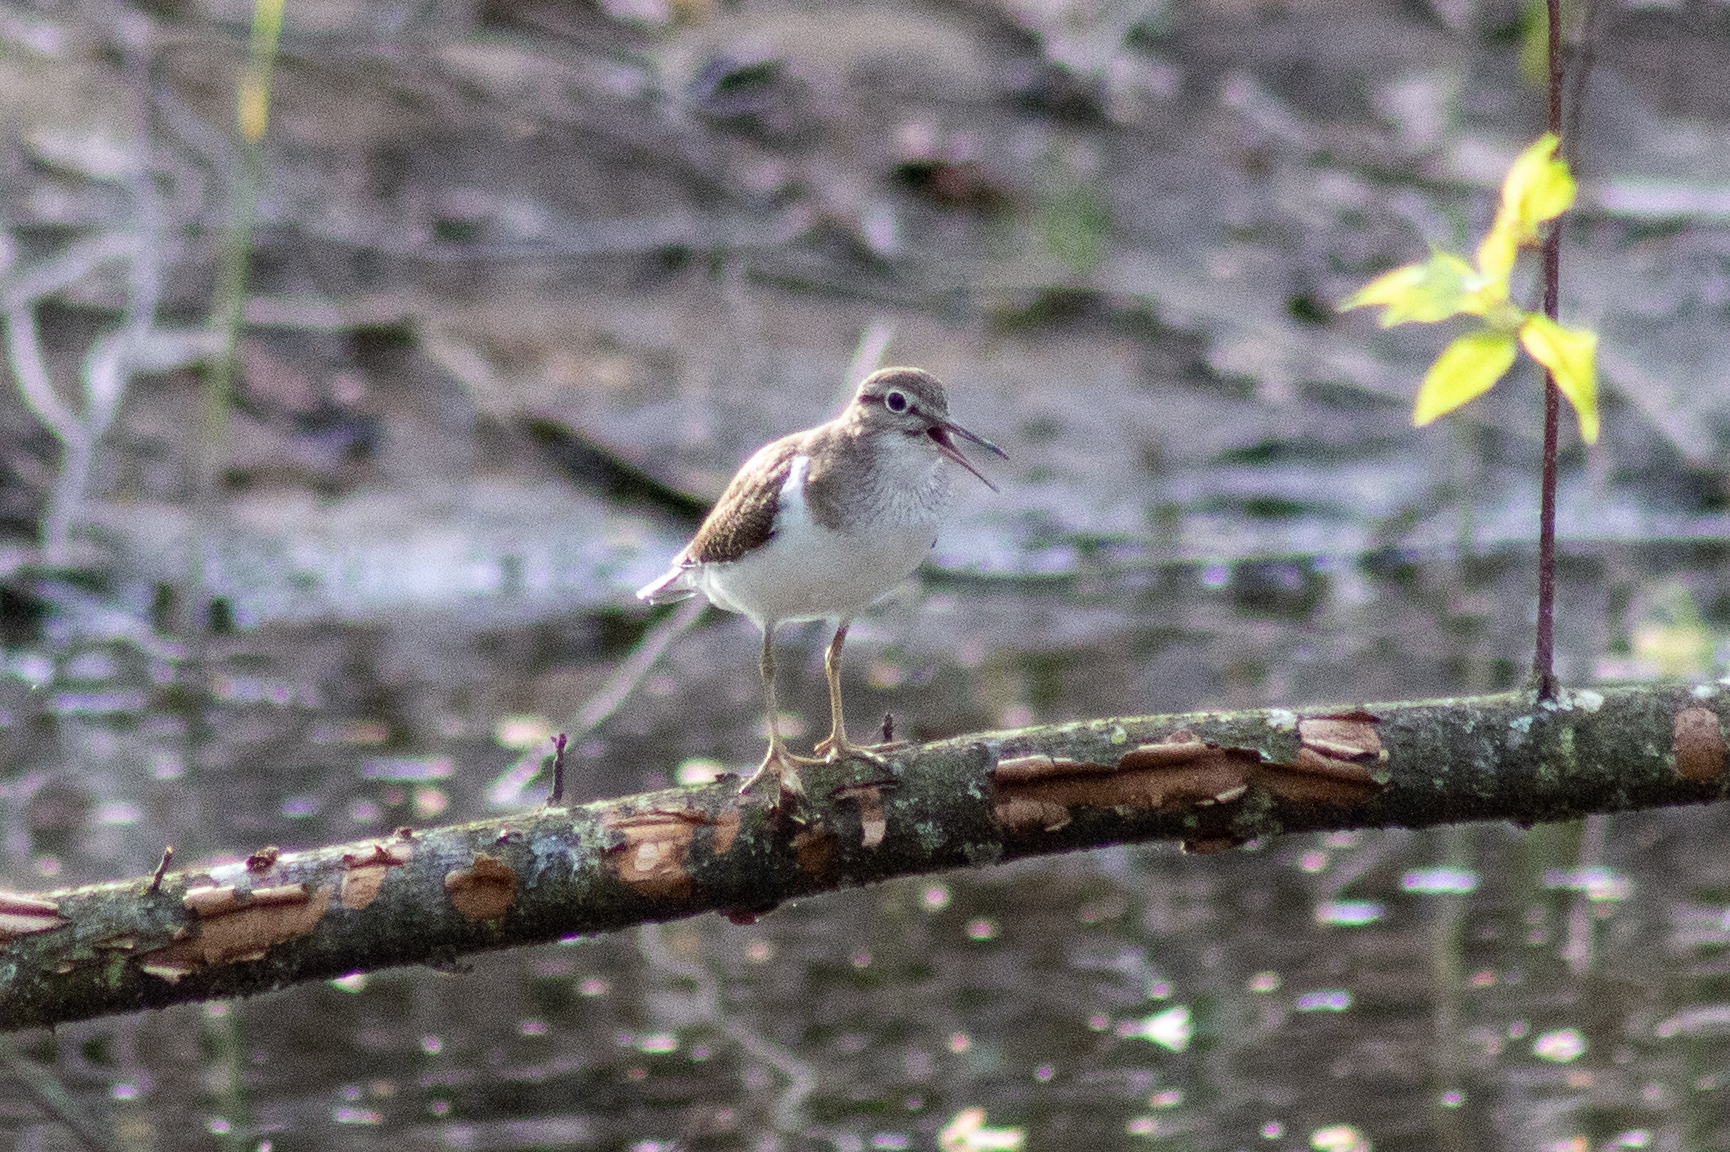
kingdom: Animalia
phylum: Chordata
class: Aves
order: Charadriiformes
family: Scolopacidae
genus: Actitis
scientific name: Actitis hypoleucos
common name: Common sandpiper
